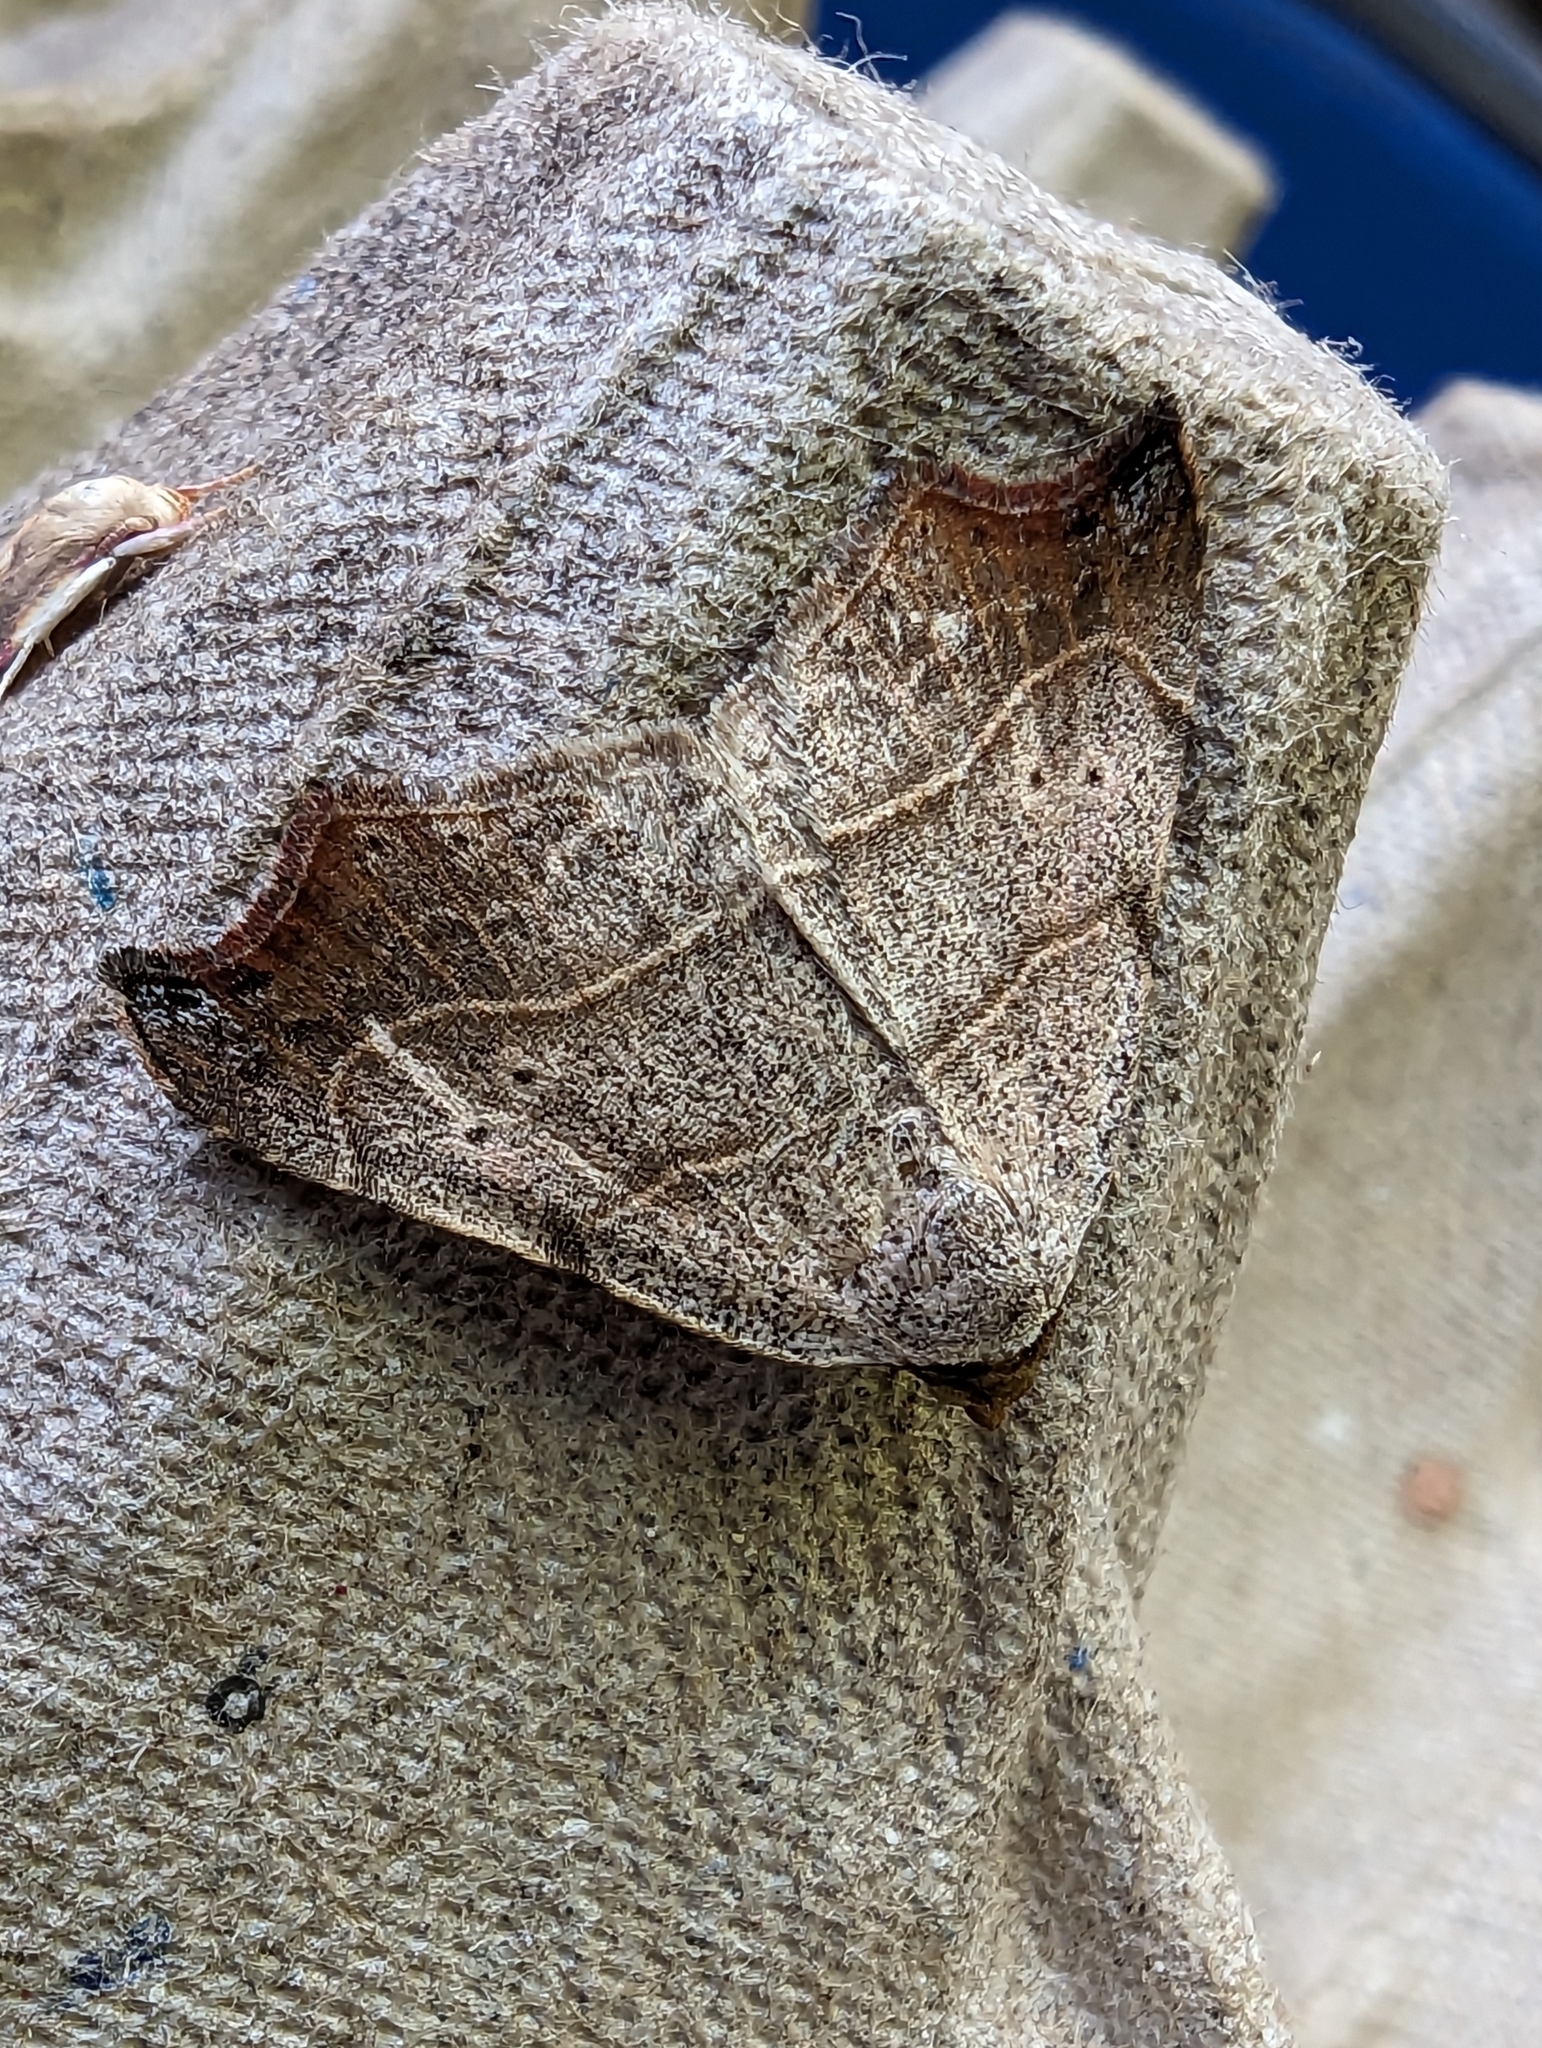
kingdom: Animalia
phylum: Arthropoda
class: Insecta
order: Lepidoptera
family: Erebidae
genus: Laspeyria
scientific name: Laspeyria flexula
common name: Beautiful hook-tip
